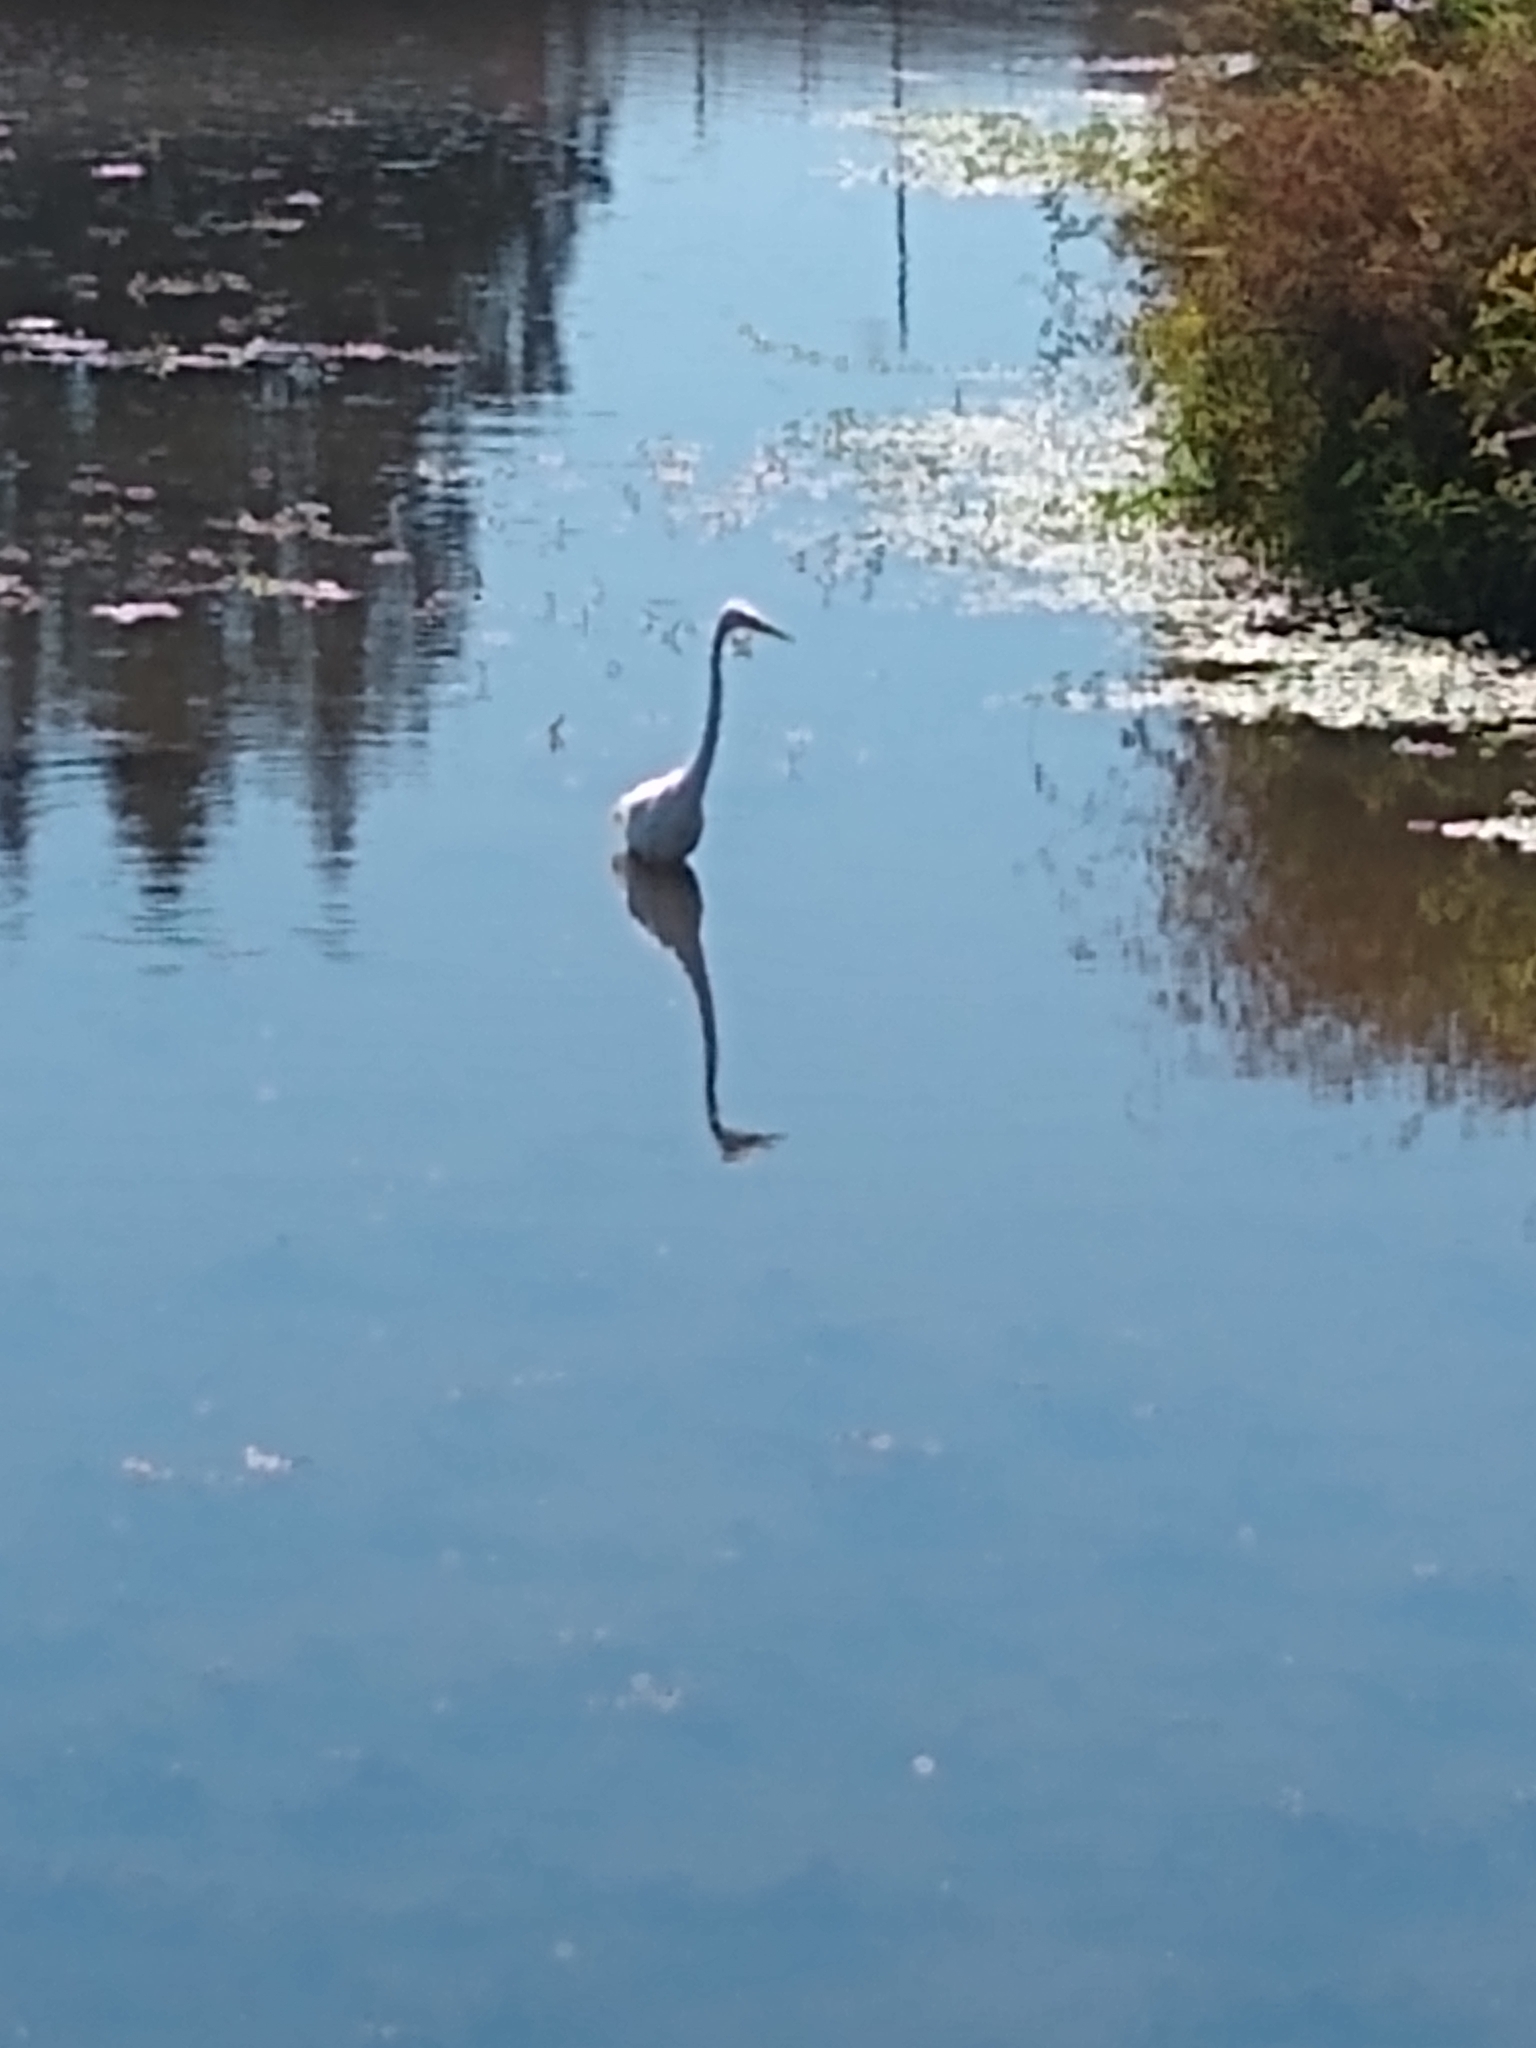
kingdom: Animalia
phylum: Chordata
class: Aves
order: Pelecaniformes
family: Ardeidae
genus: Ardea
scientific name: Ardea alba
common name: Great egret
